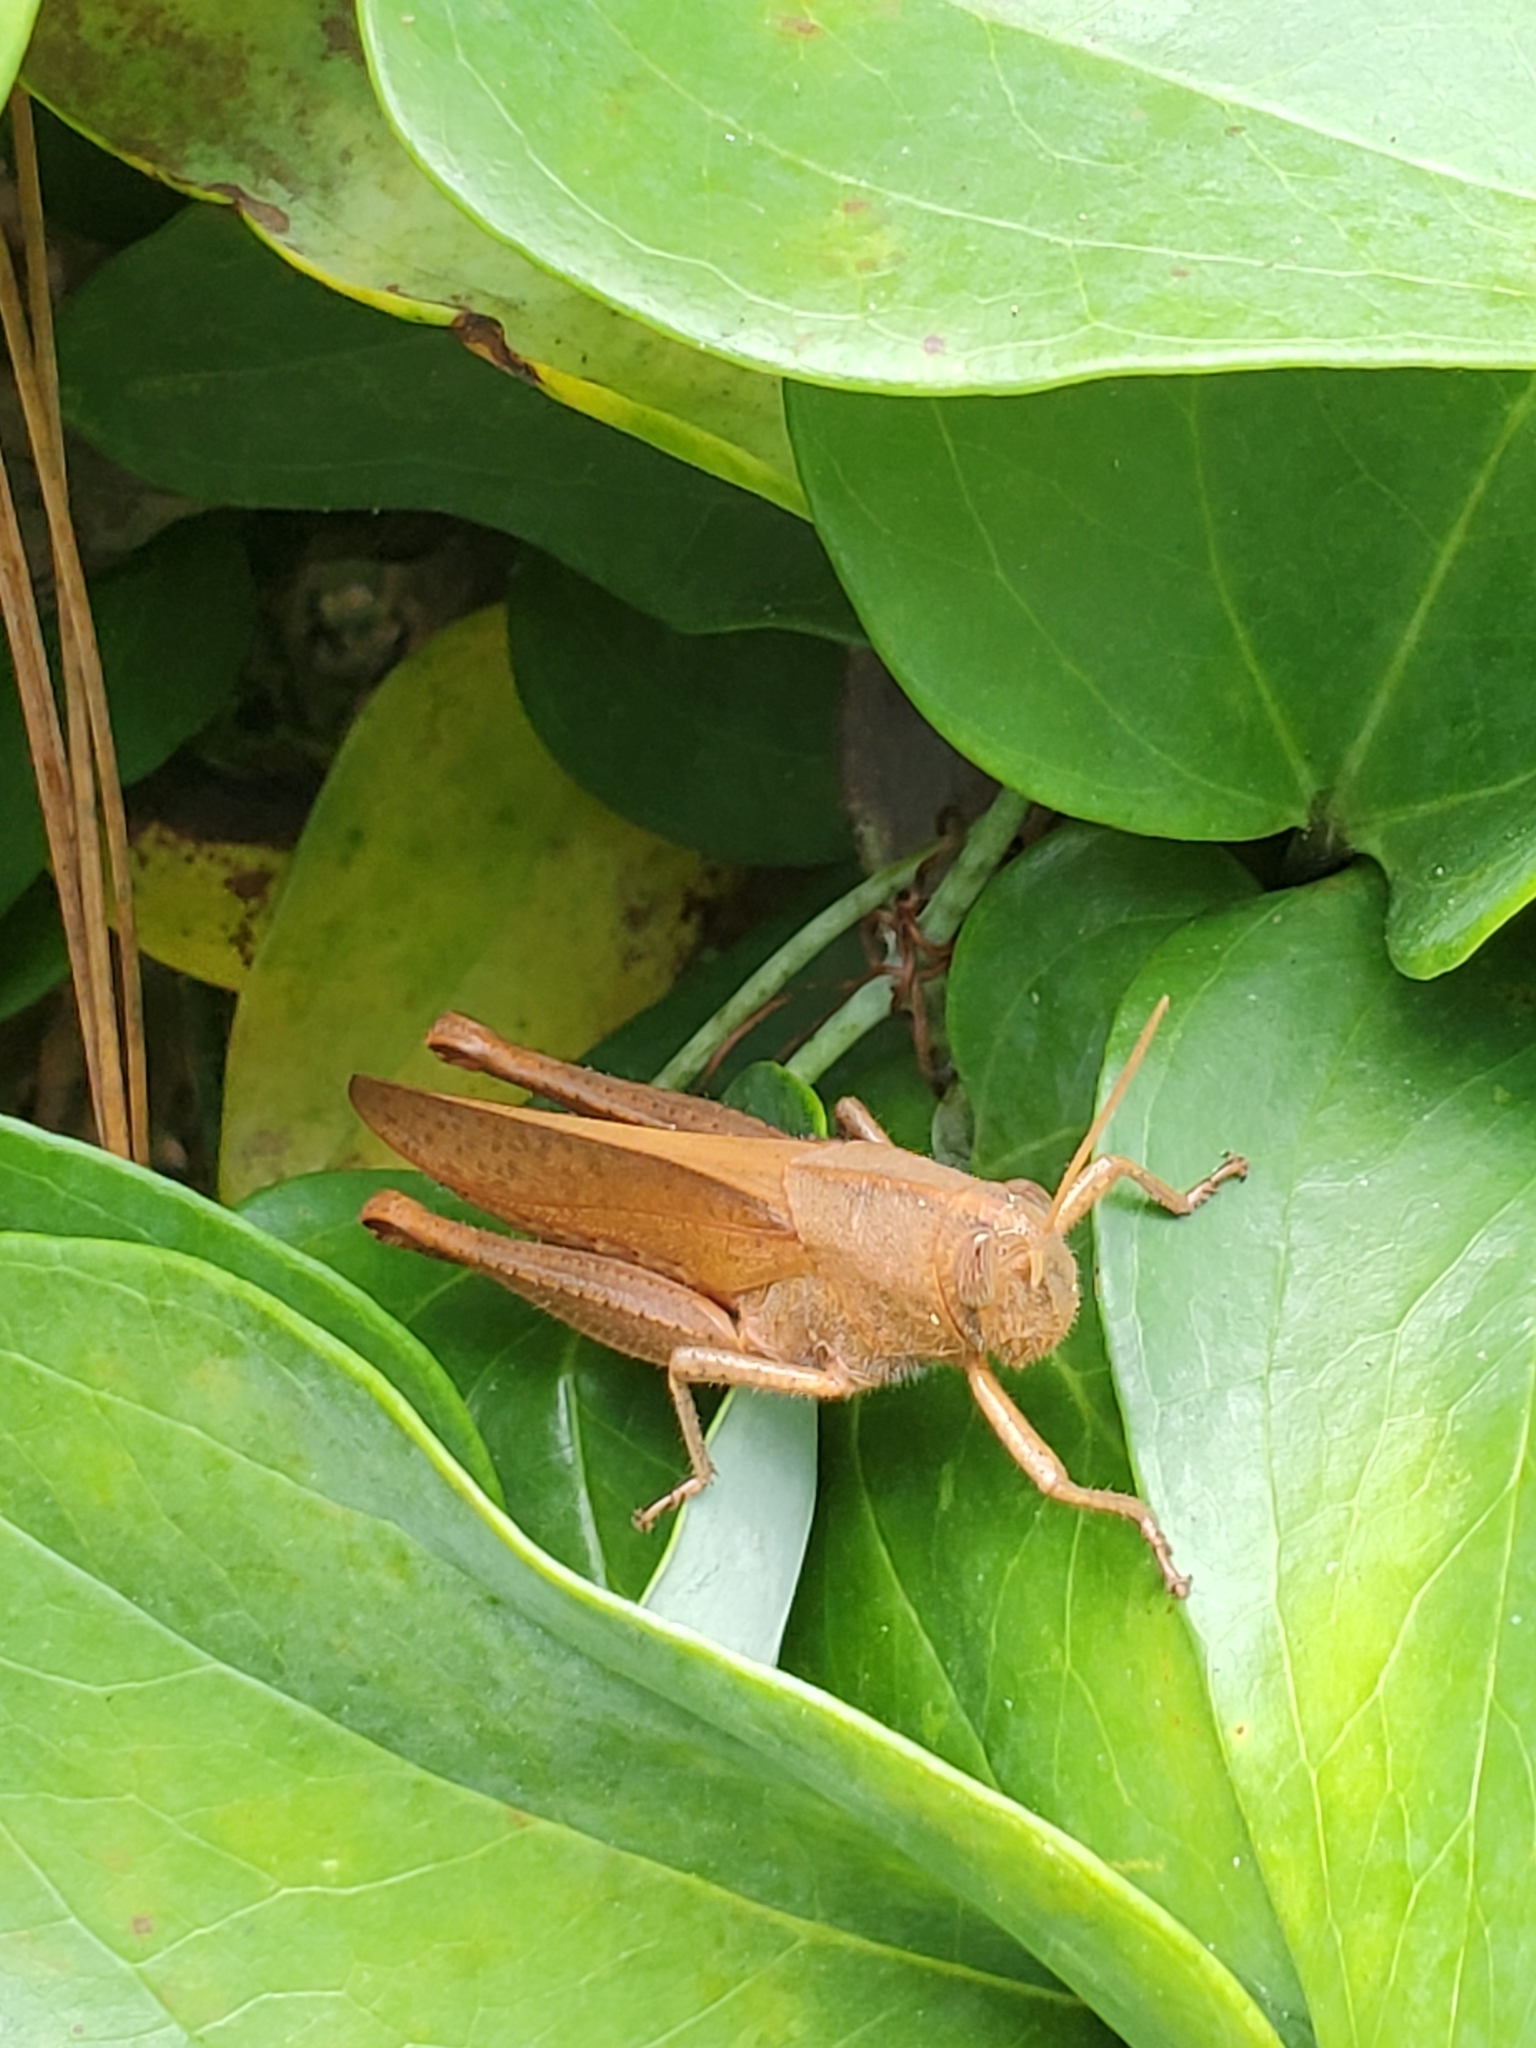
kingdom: Animalia
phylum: Arthropoda
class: Insecta
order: Orthoptera
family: Acrididae
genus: Schistocerca
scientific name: Schistocerca damnifica
